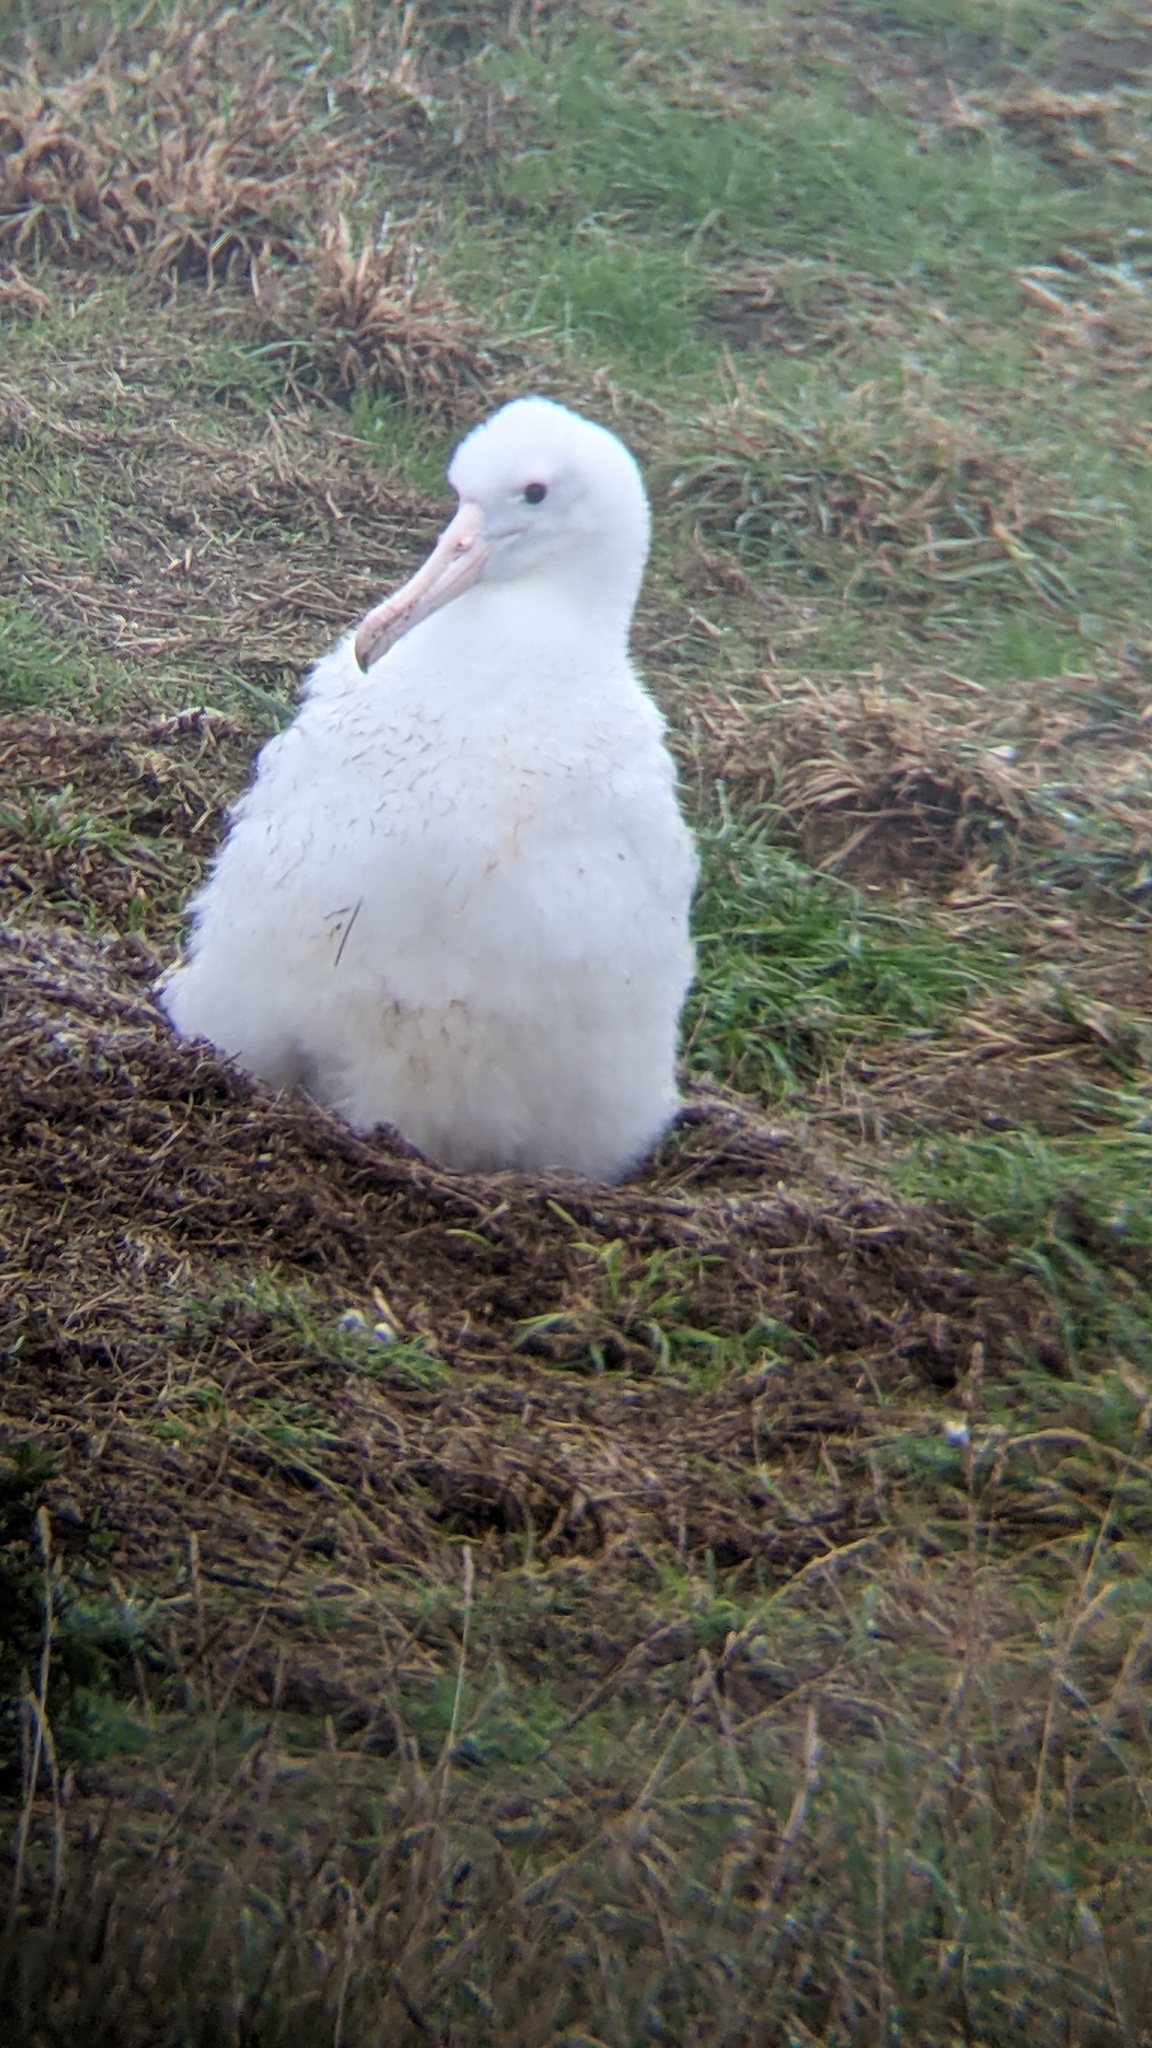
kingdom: Animalia
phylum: Chordata
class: Aves
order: Procellariiformes
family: Diomedeidae
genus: Diomedea
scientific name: Diomedea sanfordi
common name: Northern royal albatross
